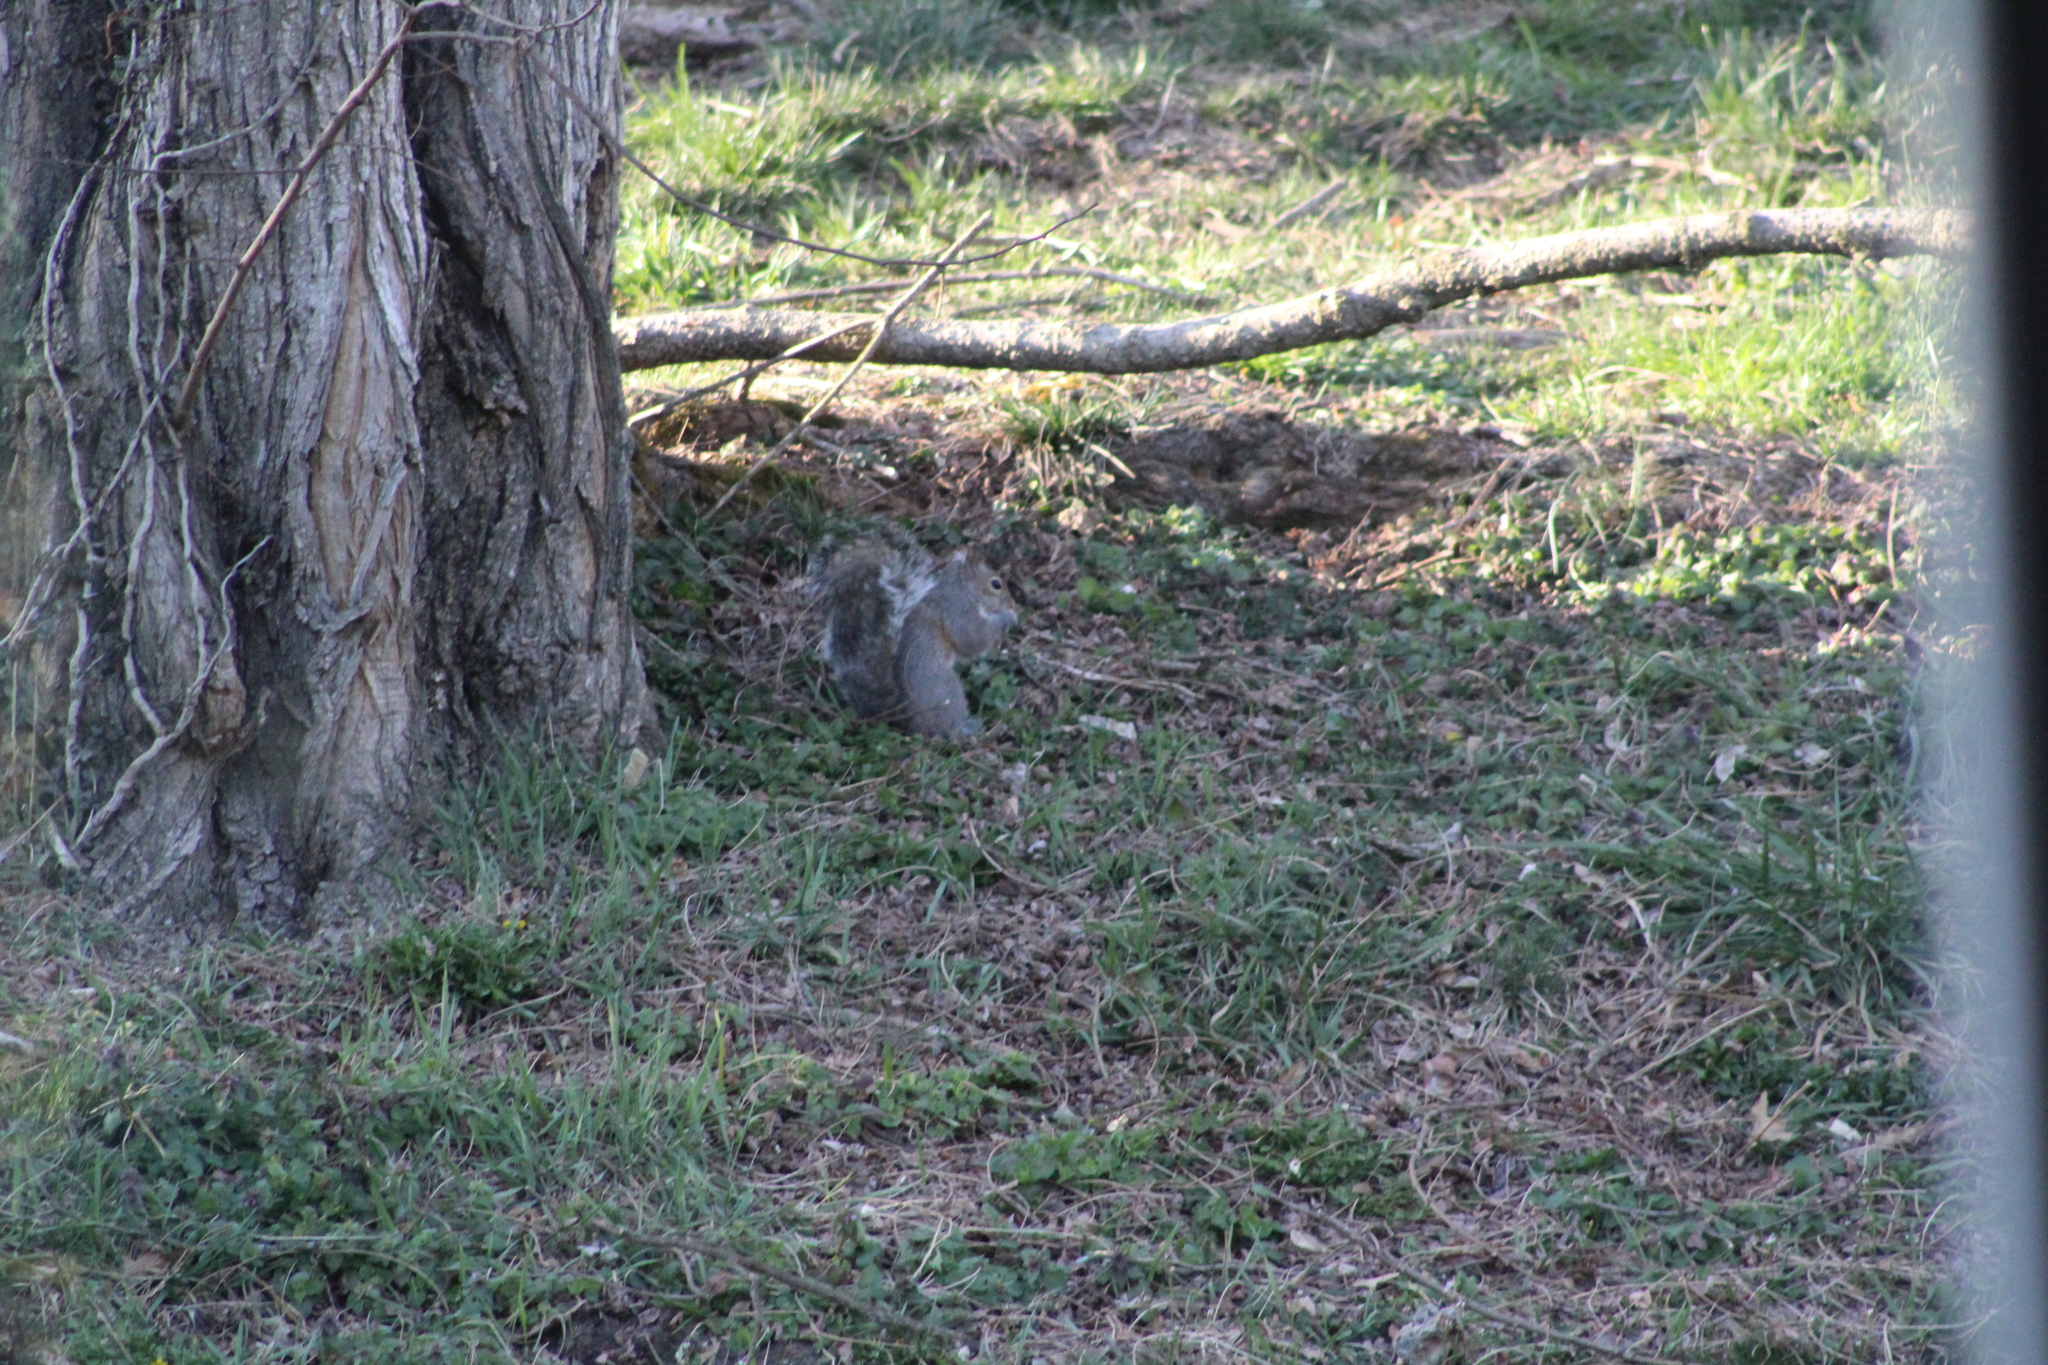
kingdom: Animalia
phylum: Chordata
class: Mammalia
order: Rodentia
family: Sciuridae
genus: Sciurus
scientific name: Sciurus carolinensis
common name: Eastern gray squirrel
